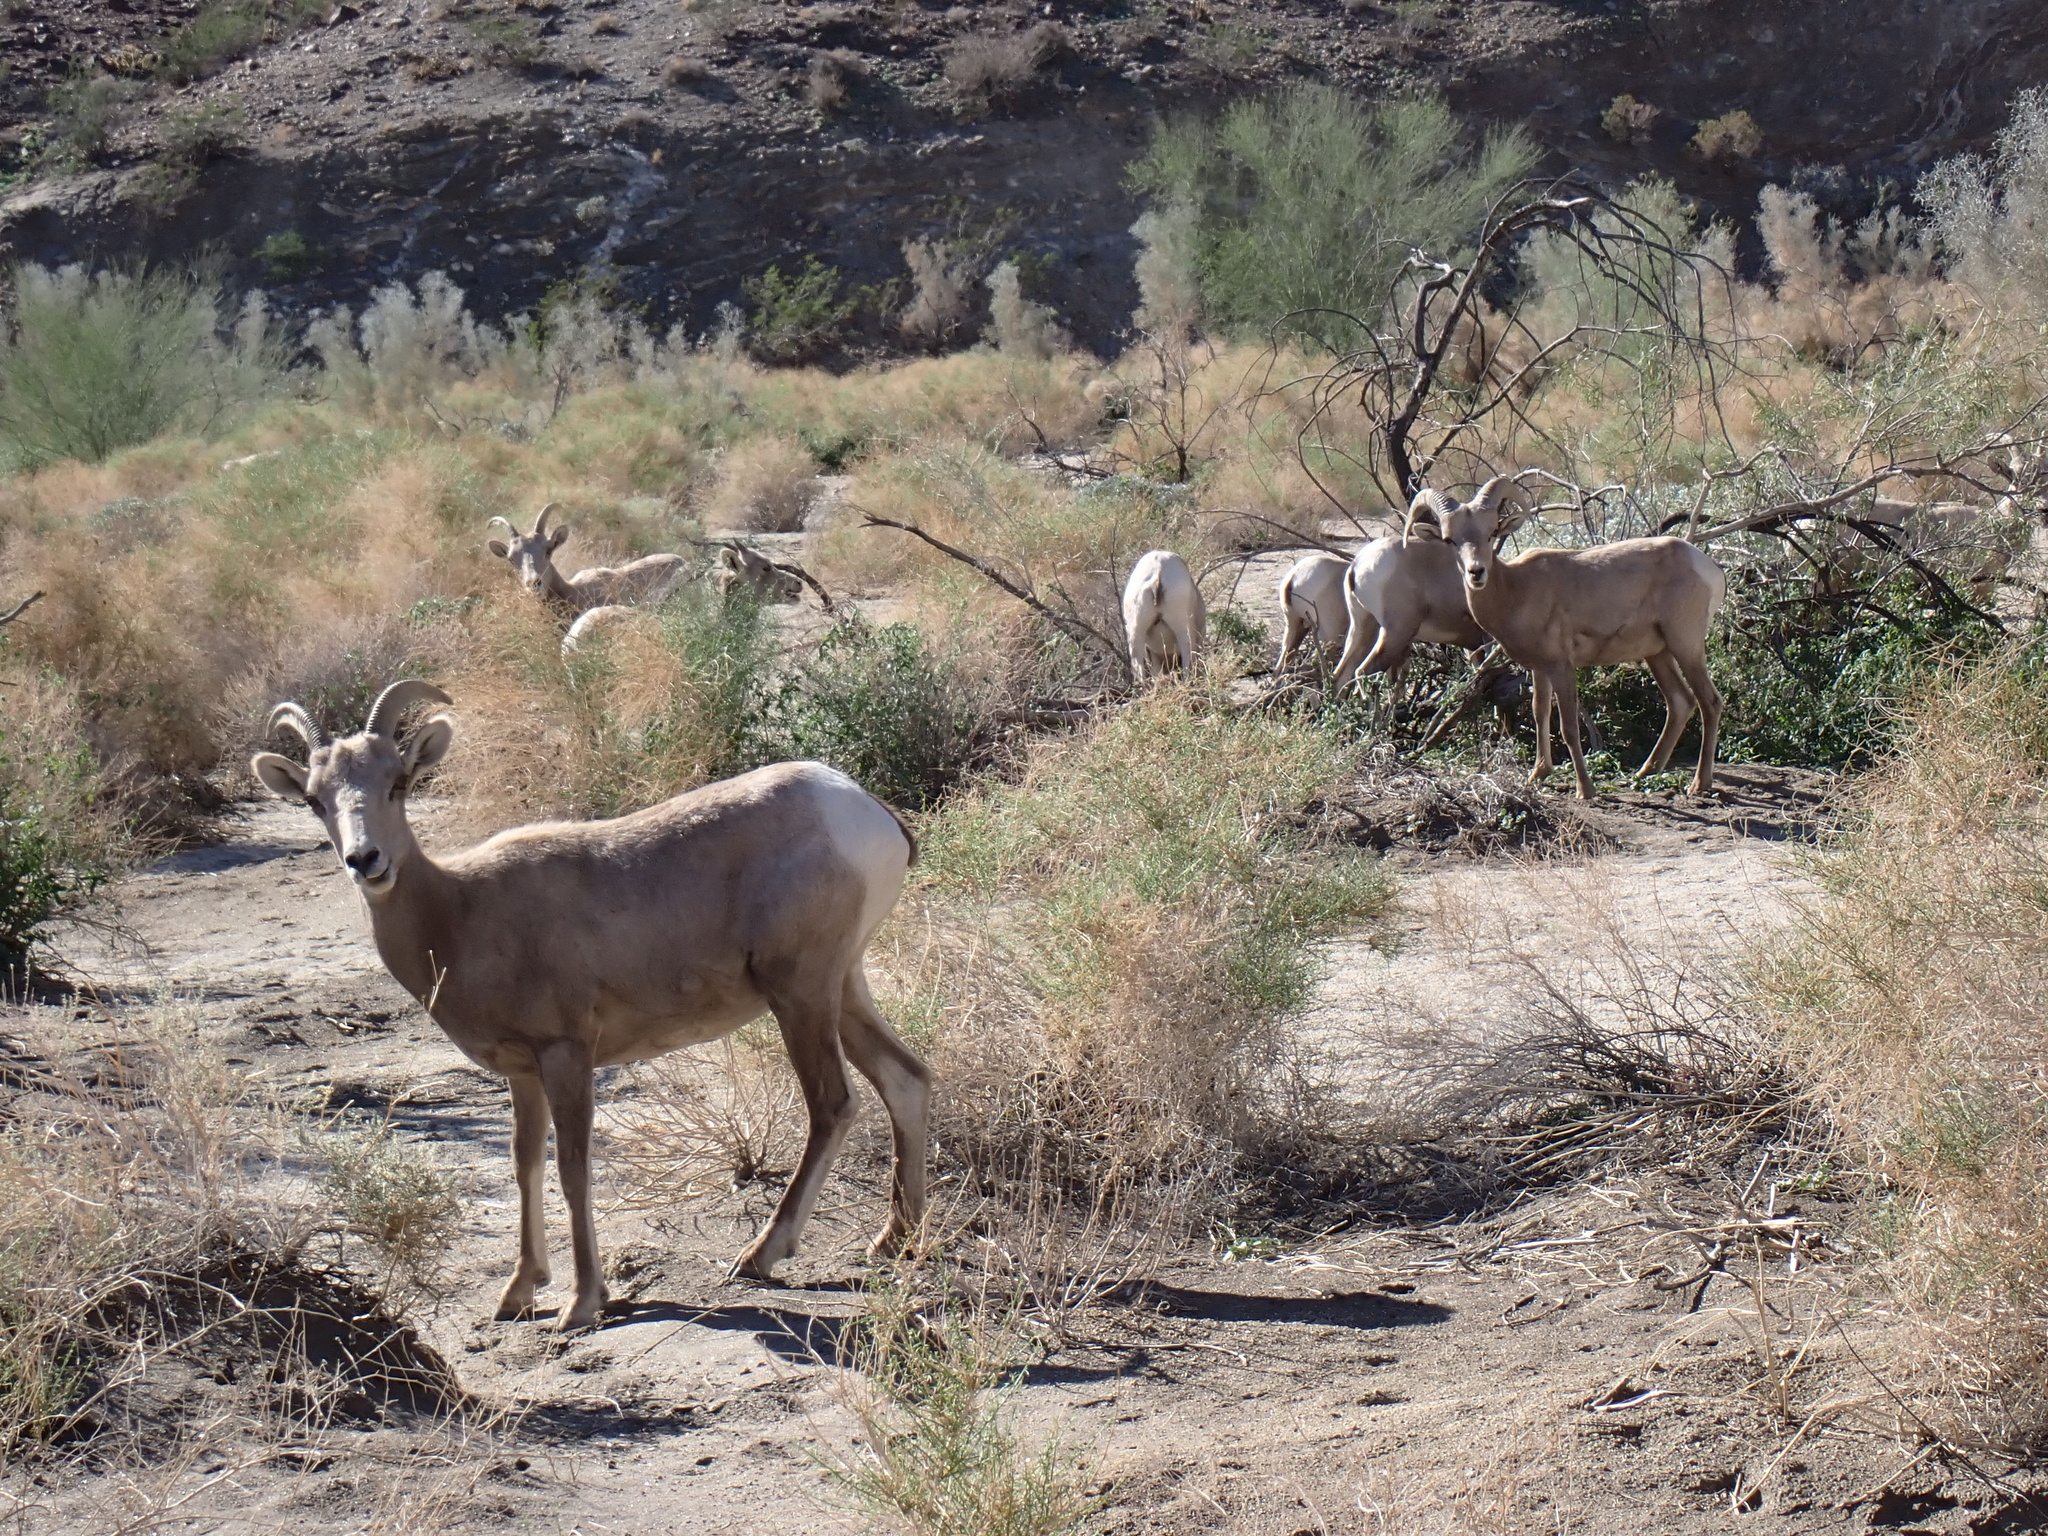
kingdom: Animalia
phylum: Chordata
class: Mammalia
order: Artiodactyla
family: Bovidae
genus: Ovis
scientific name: Ovis canadensis
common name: Bighorn sheep
